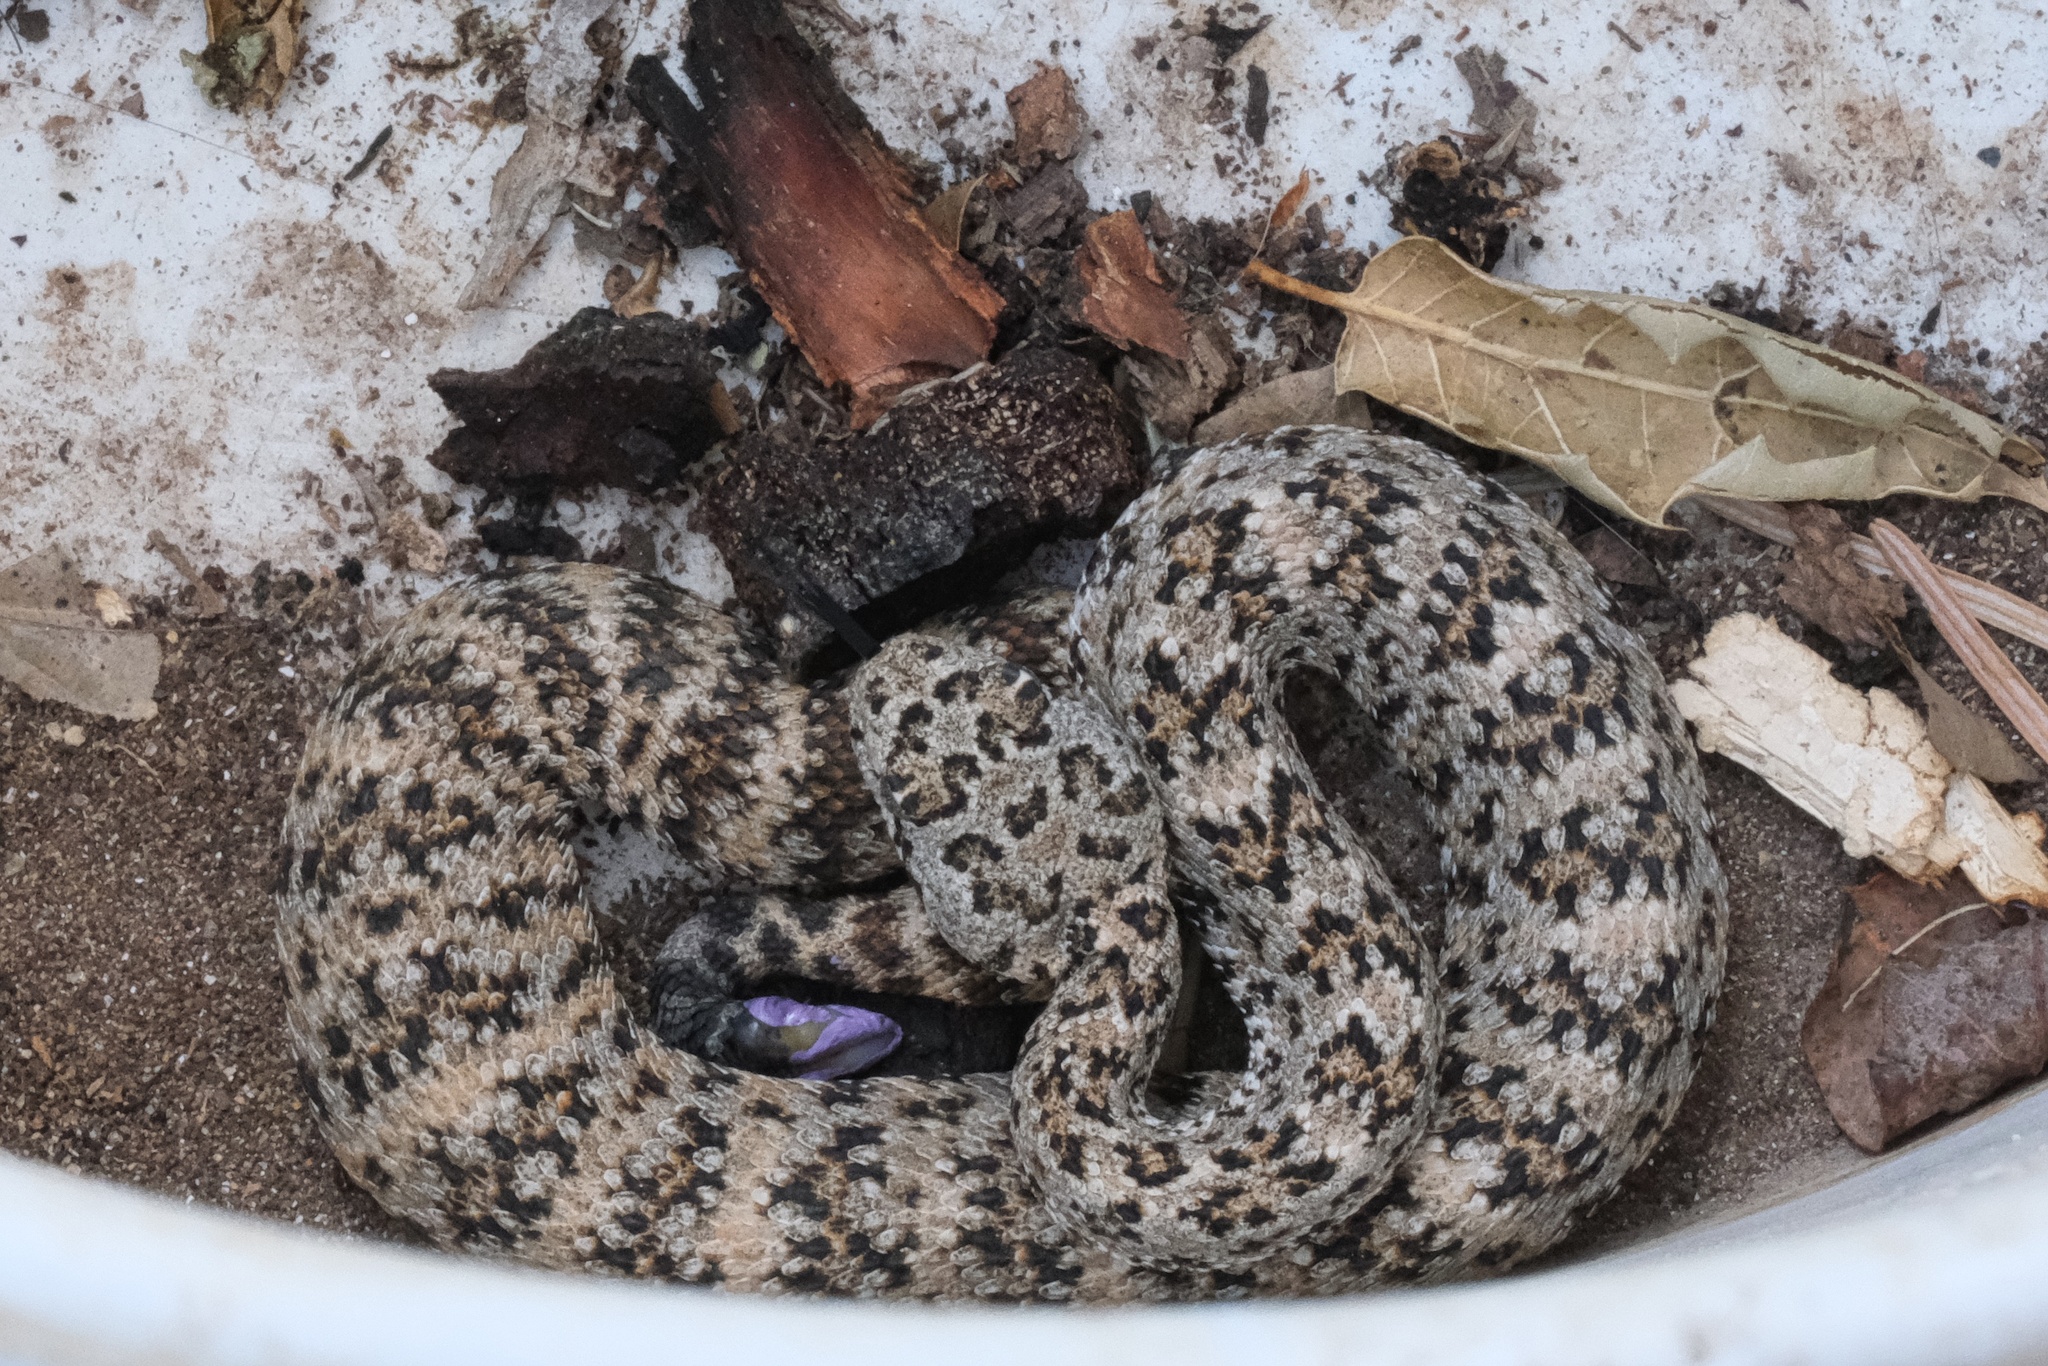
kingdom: Animalia
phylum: Chordata
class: Squamata
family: Viperidae
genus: Crotalus
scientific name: Crotalus pyrrhus
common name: Southwestern speckled rattlesnake
